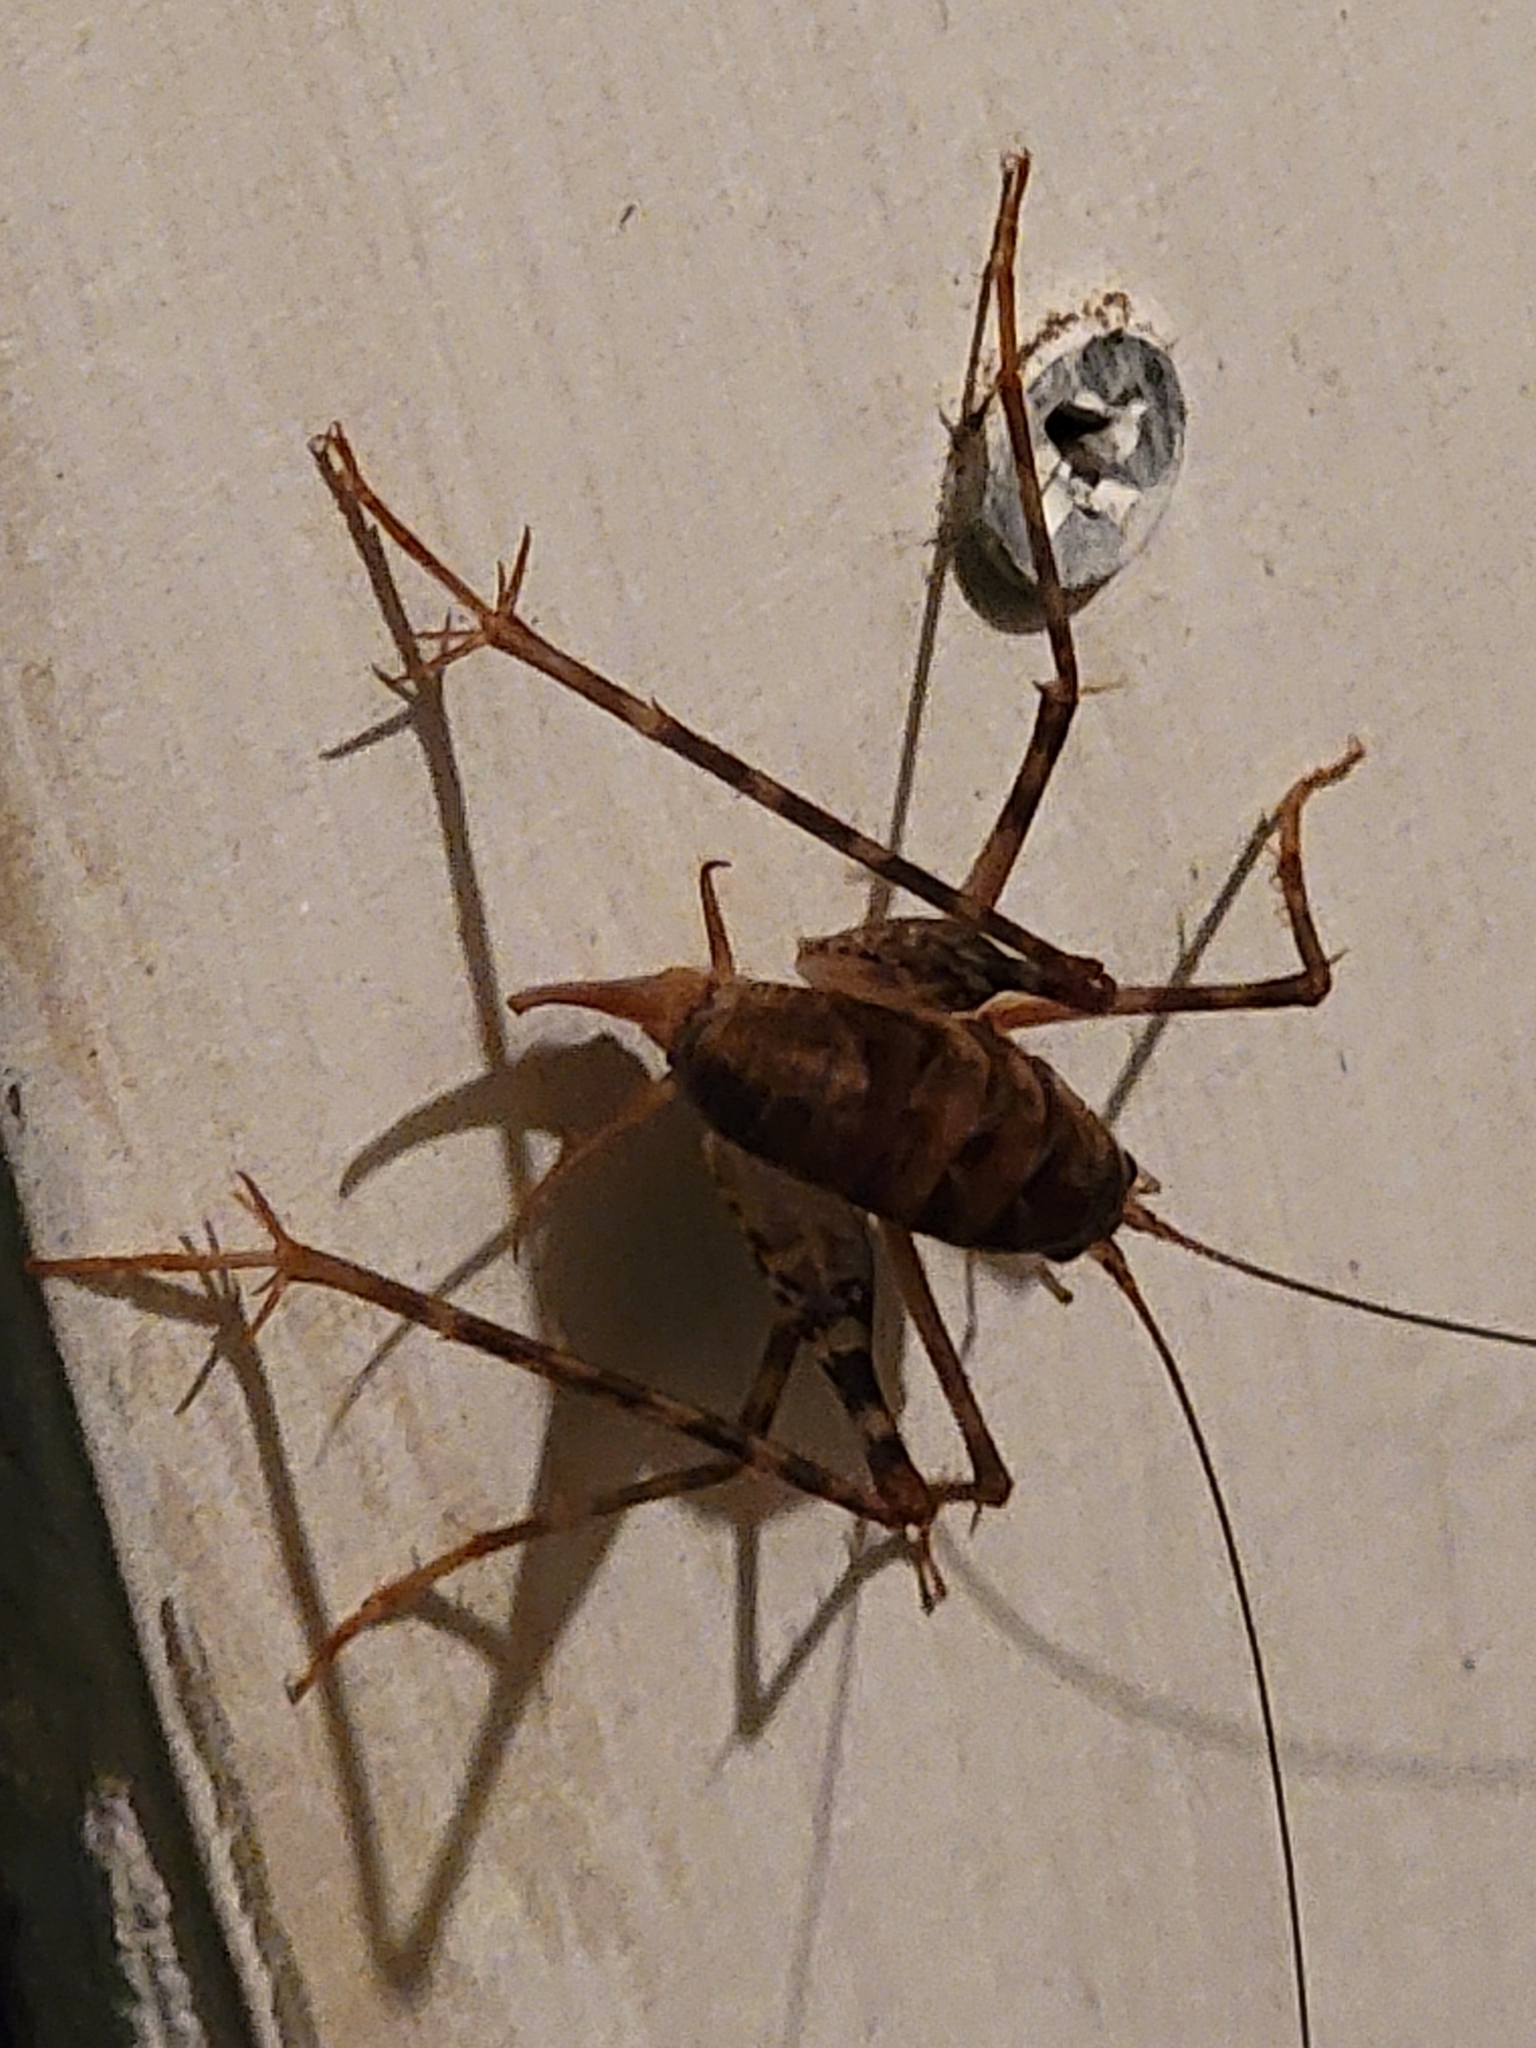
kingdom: Animalia
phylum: Arthropoda
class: Insecta
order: Orthoptera
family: Rhaphidophoridae
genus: Tachycines
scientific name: Tachycines asynamorus
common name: Greenhouse camel cricket
